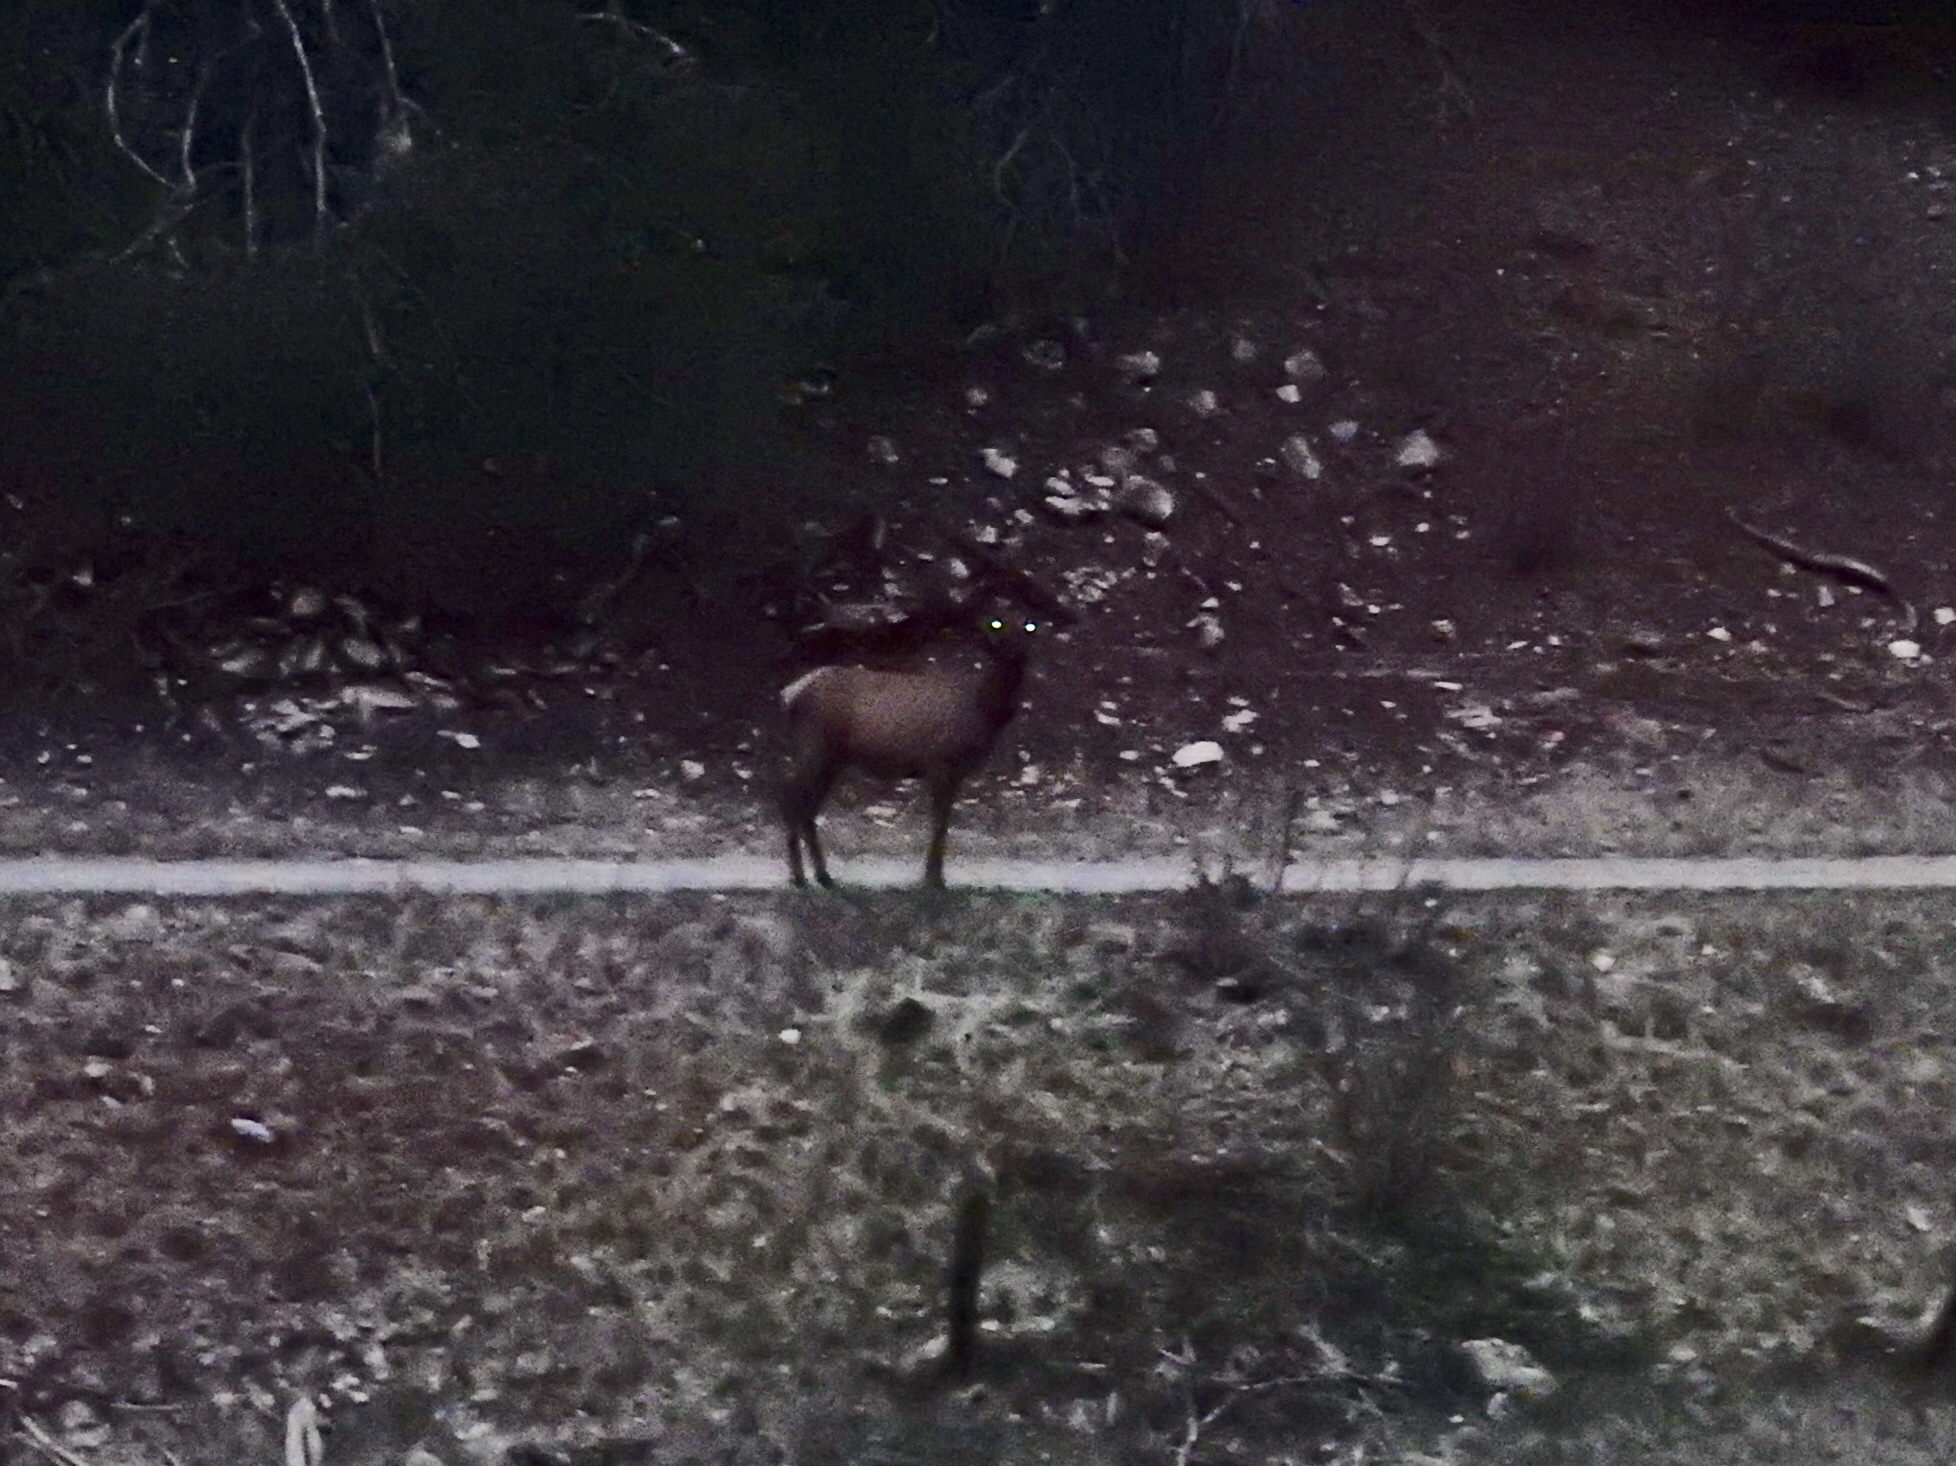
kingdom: Animalia
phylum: Chordata
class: Mammalia
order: Artiodactyla
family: Cervidae
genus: Cervus
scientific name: Cervus elaphus
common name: Red deer
